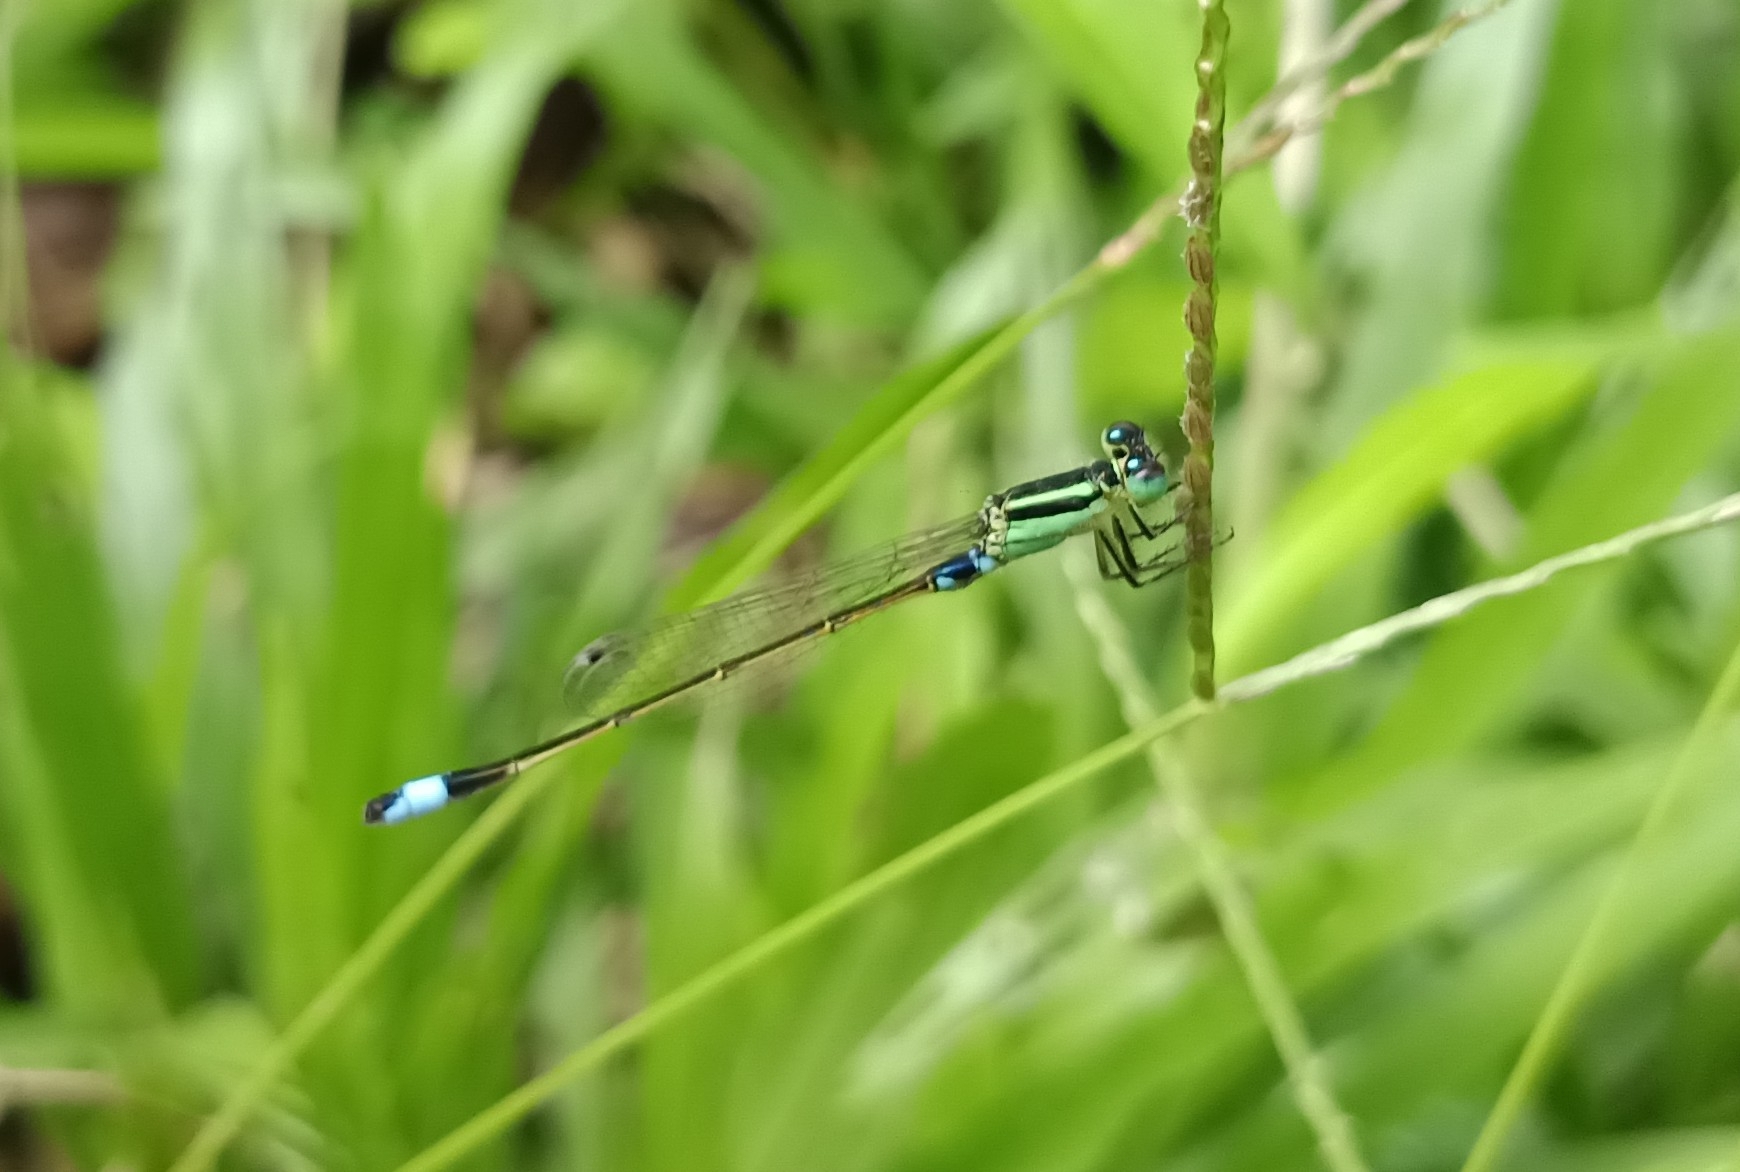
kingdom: Animalia
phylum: Arthropoda
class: Insecta
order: Odonata
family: Coenagrionidae
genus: Ischnura
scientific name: Ischnura senegalensis
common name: Tropical bluetail
